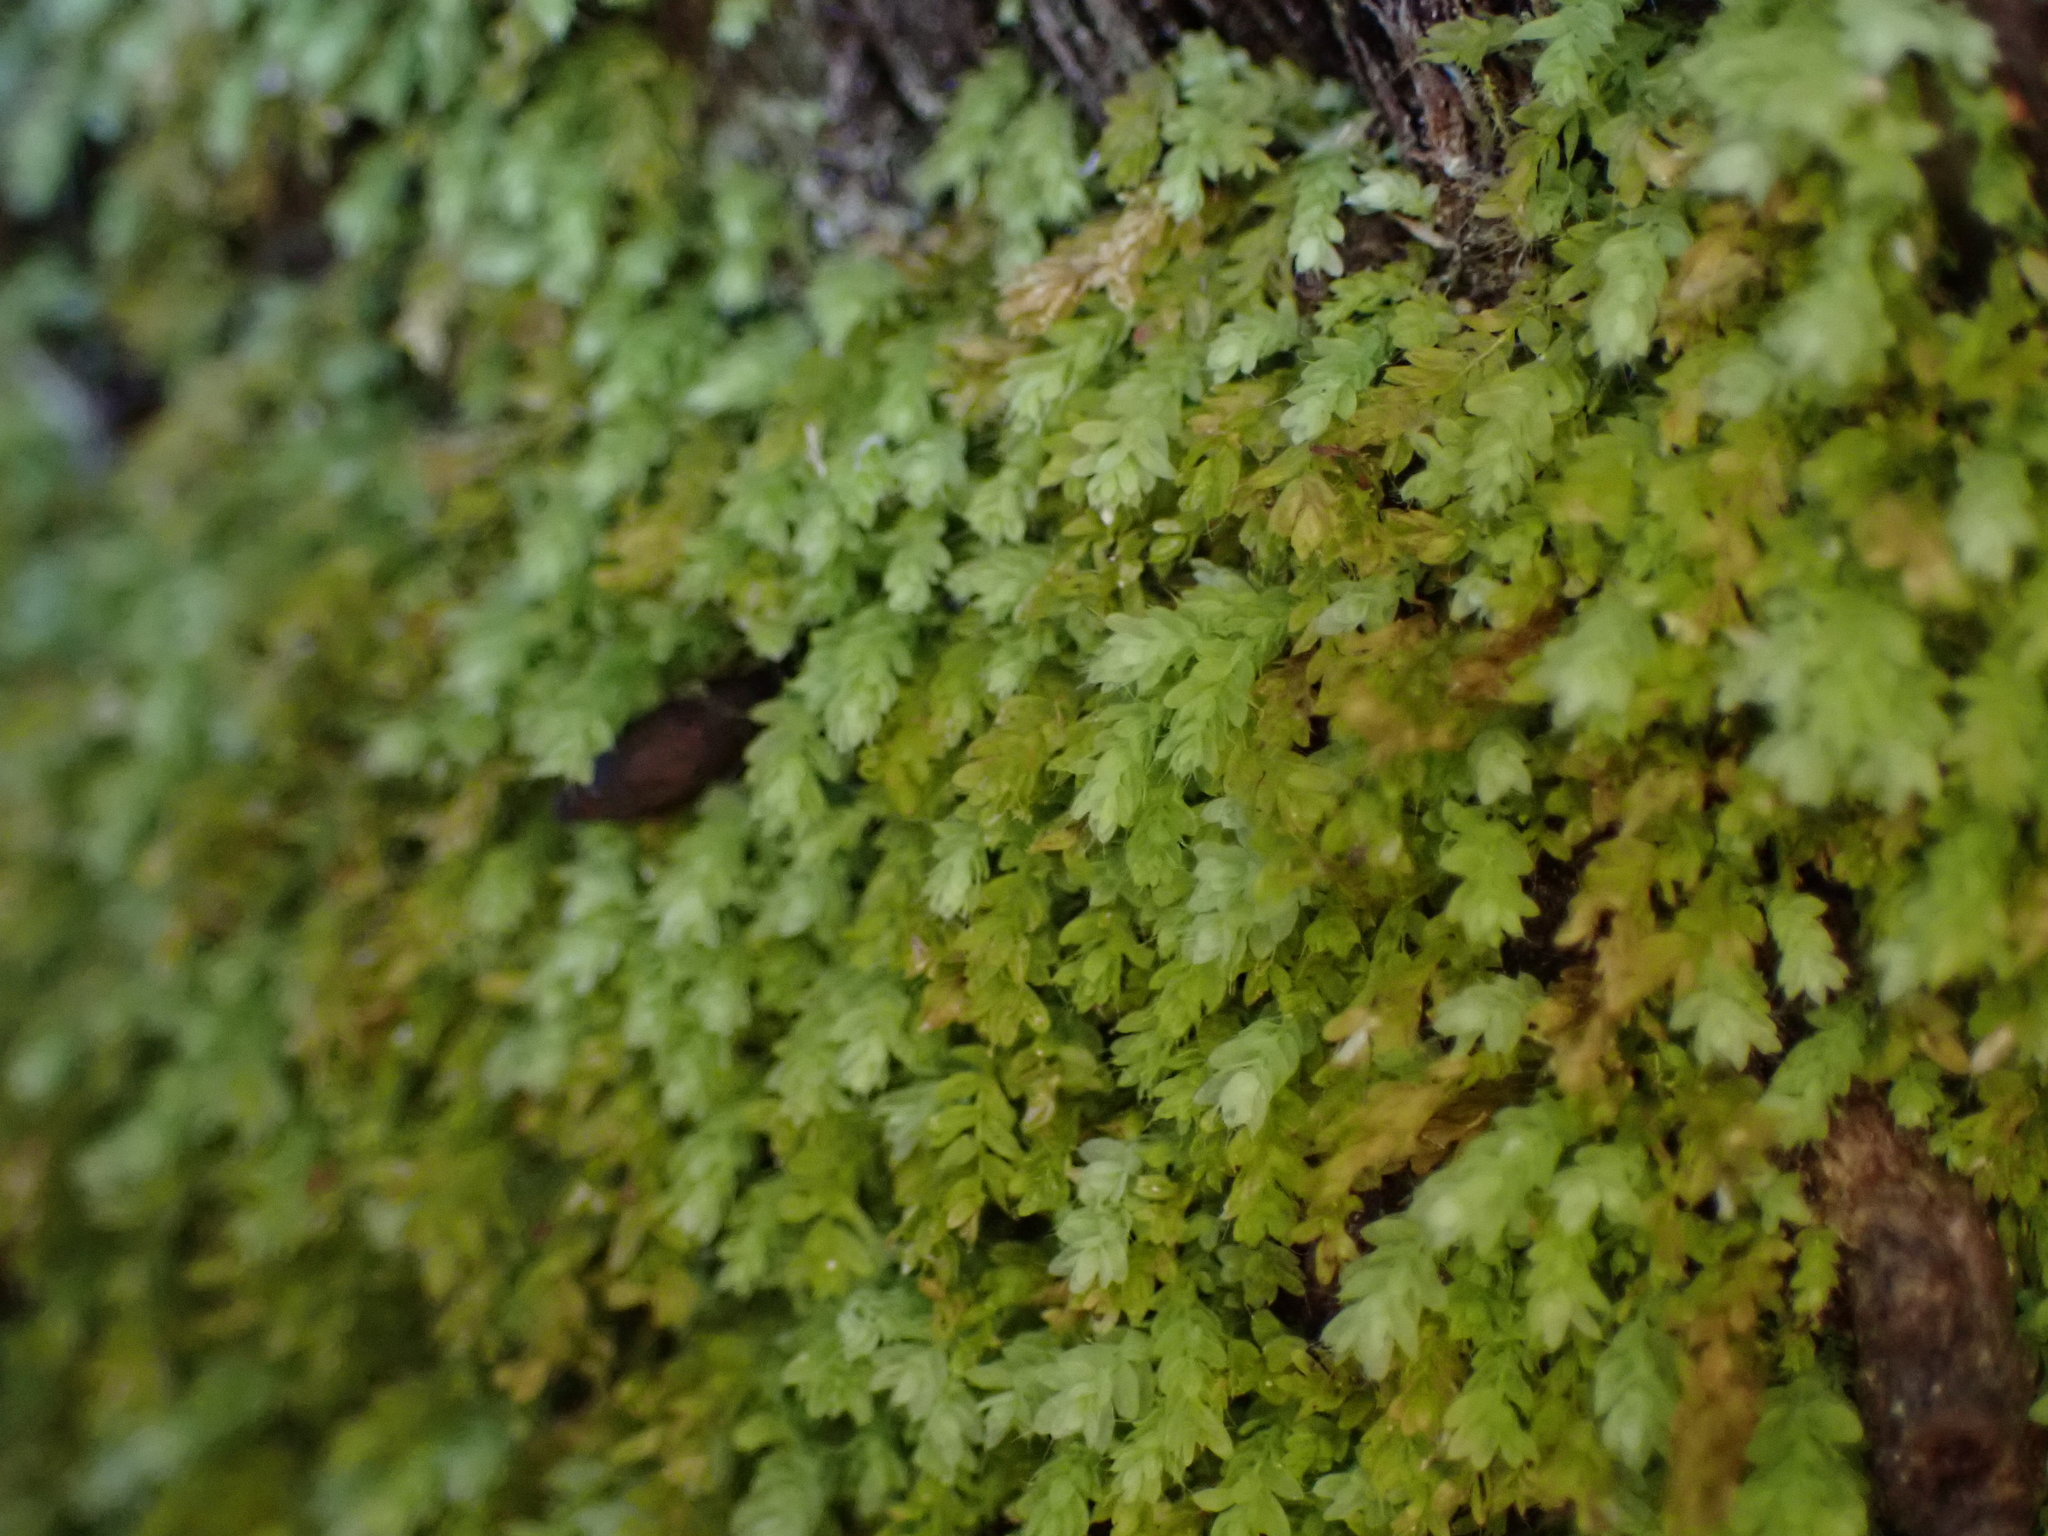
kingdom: Plantae
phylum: Bryophyta
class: Bryopsida
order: Orthodontiales
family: Orthodontiaceae
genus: Hymenodon
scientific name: Hymenodon pilifer
